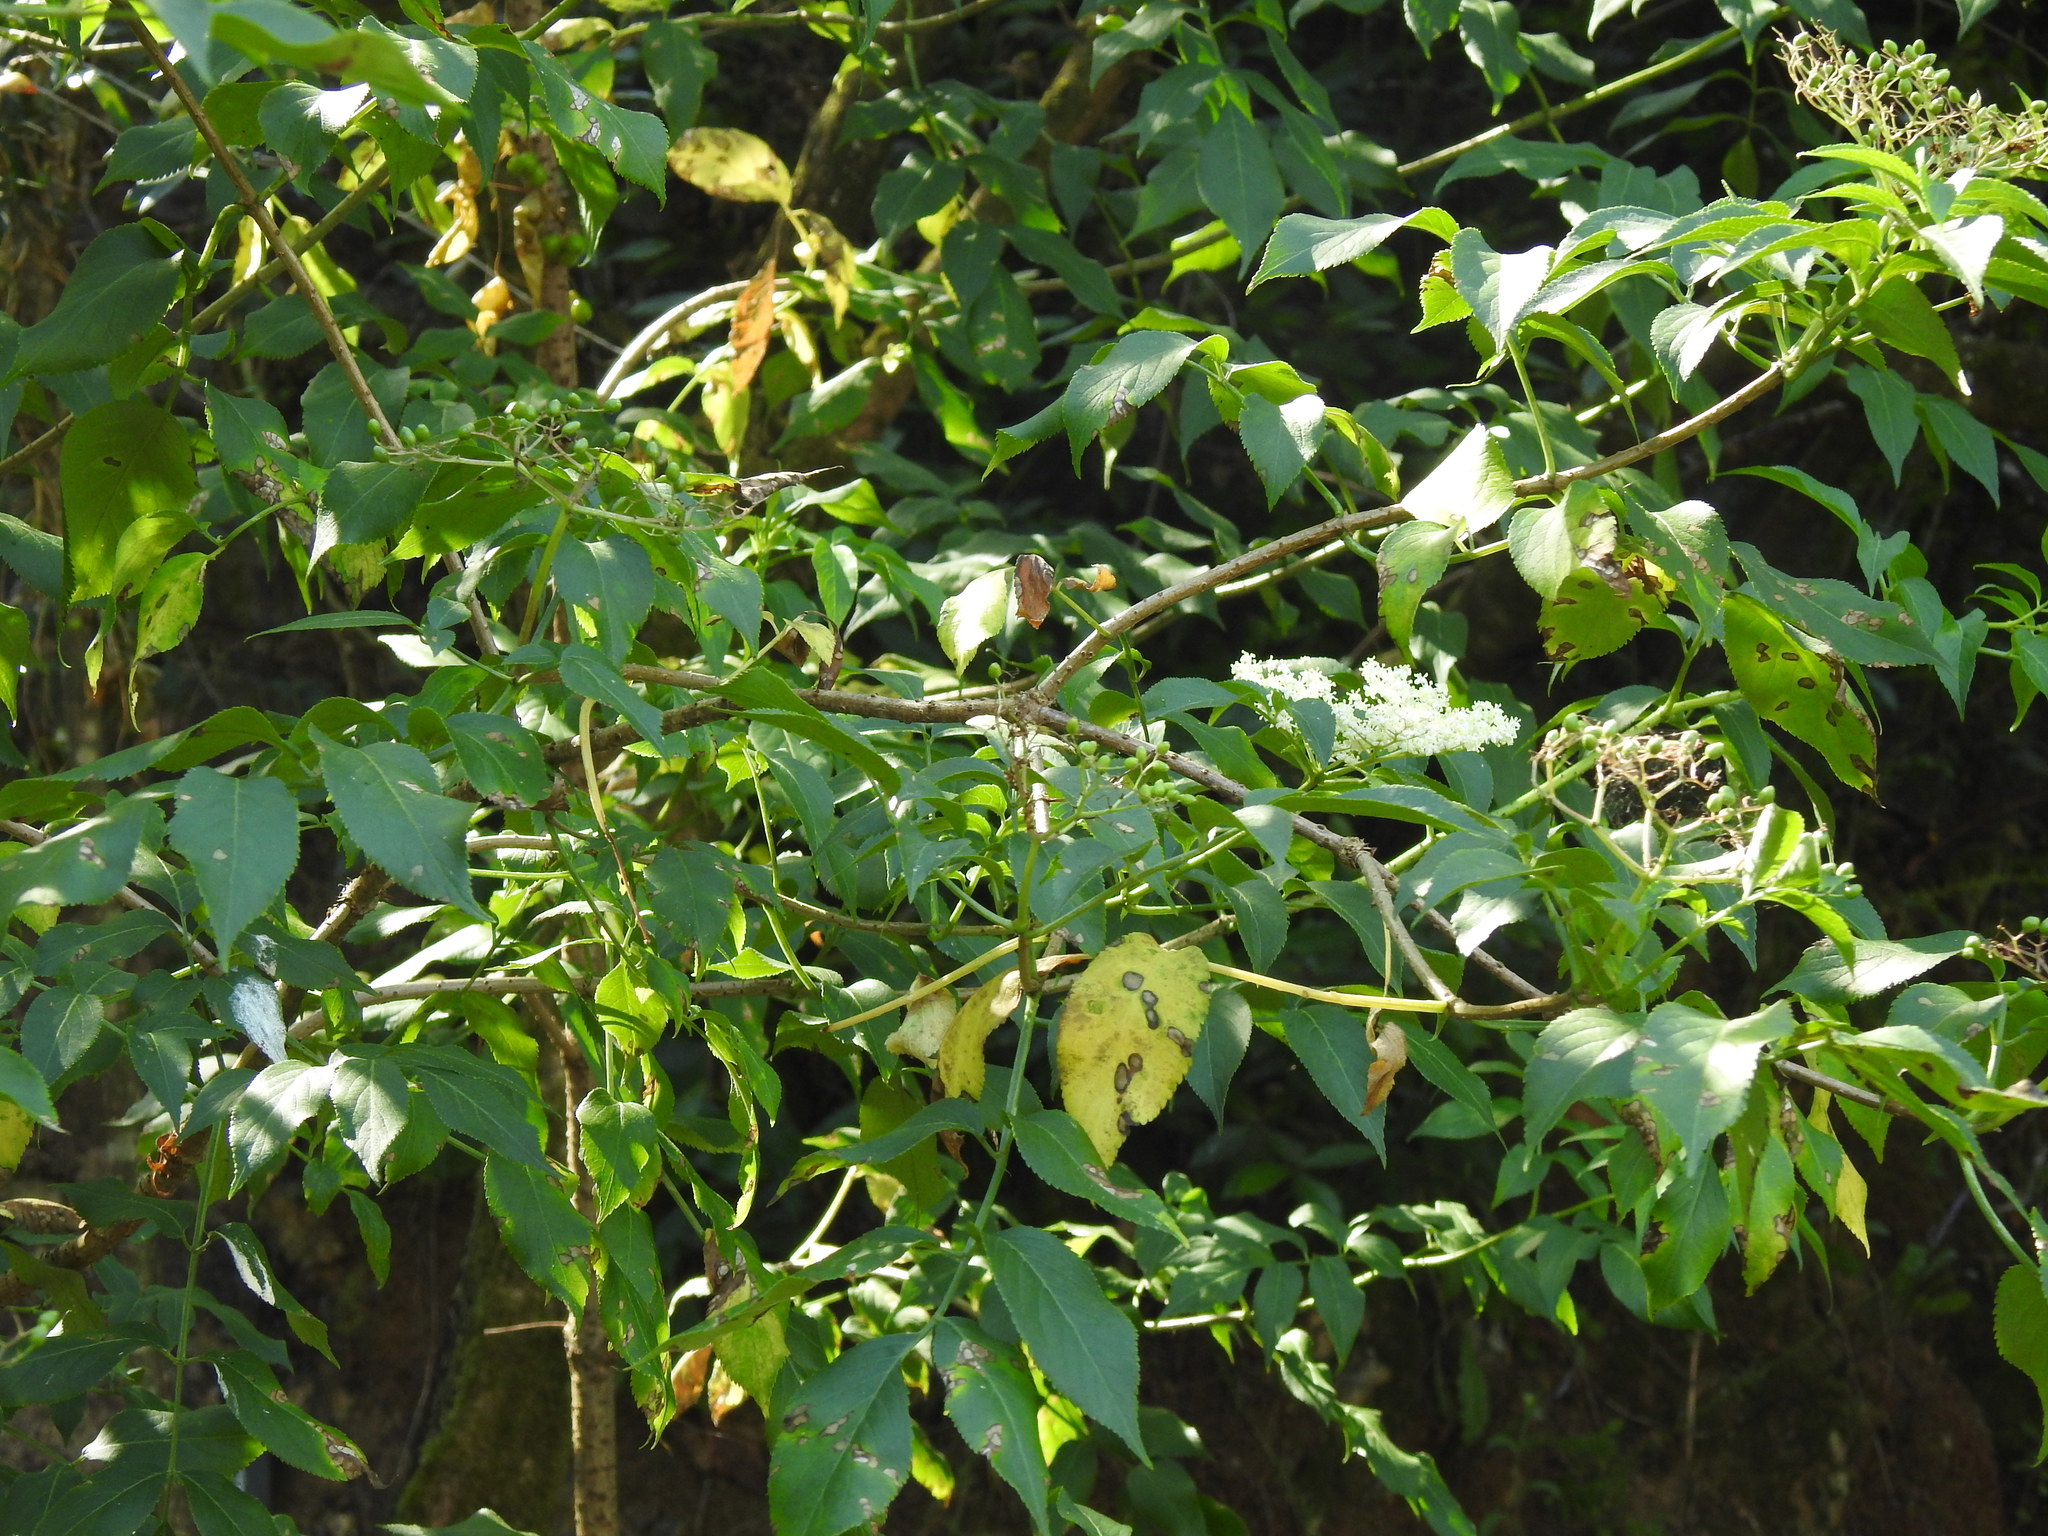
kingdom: Plantae
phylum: Tracheophyta
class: Magnoliopsida
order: Dipsacales
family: Viburnaceae
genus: Sambucus
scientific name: Sambucus nigra
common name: Elder
